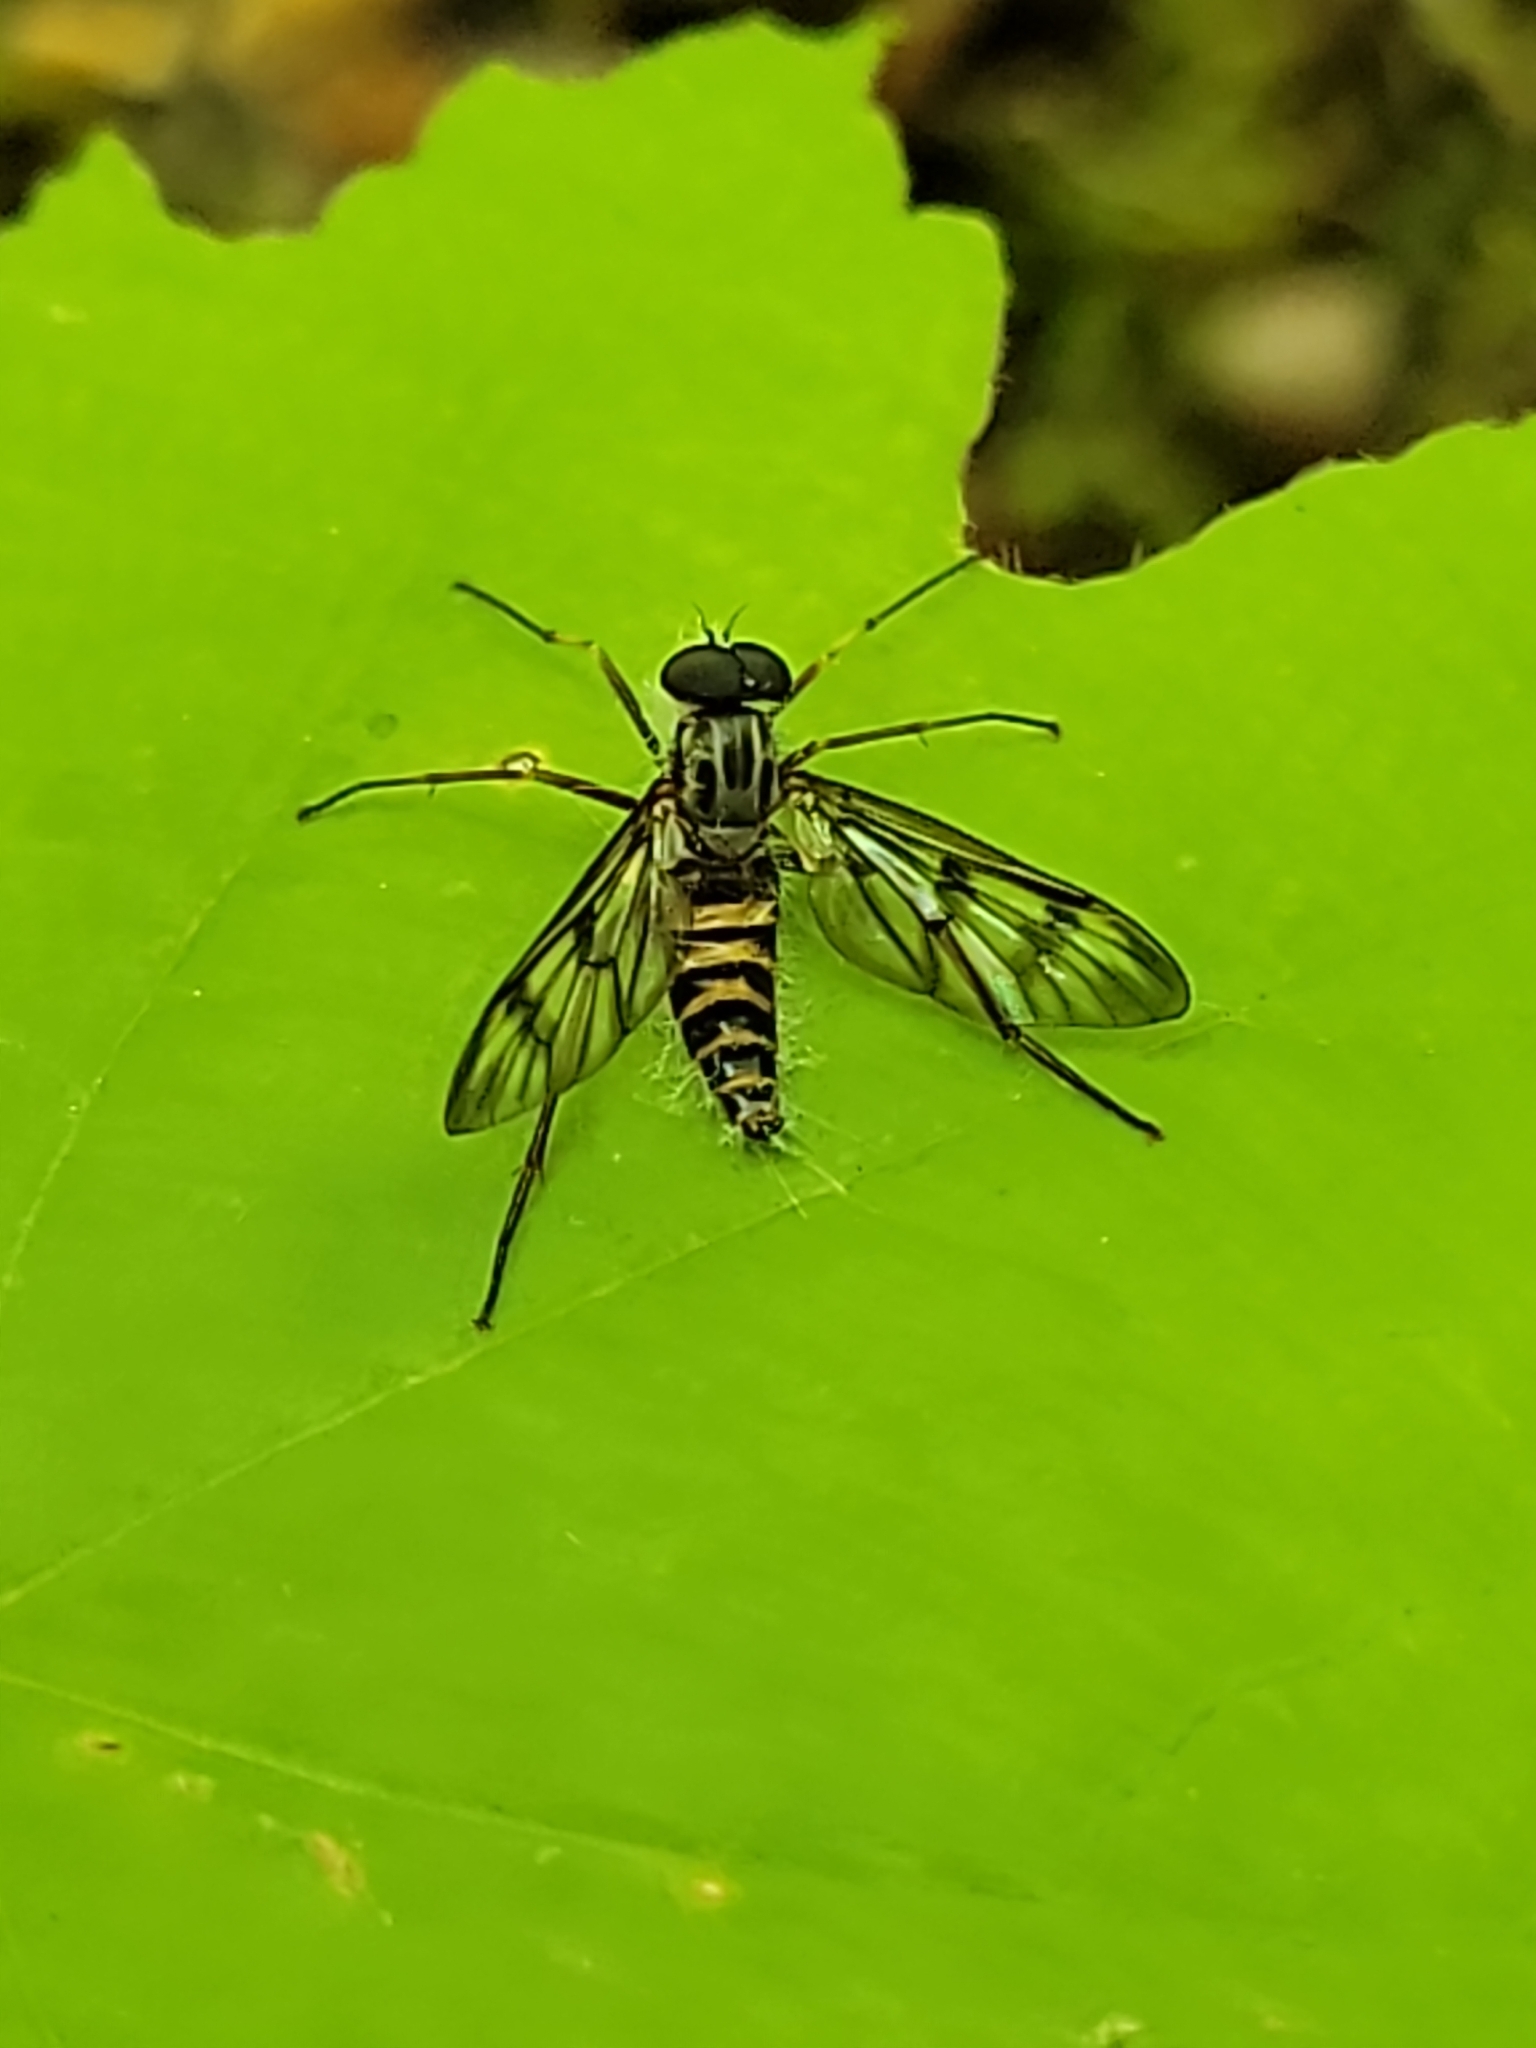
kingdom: Animalia
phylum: Arthropoda
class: Insecta
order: Diptera
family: Rhagionidae
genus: Rhagio
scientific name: Rhagio mystaceus
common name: Common snipe fly
